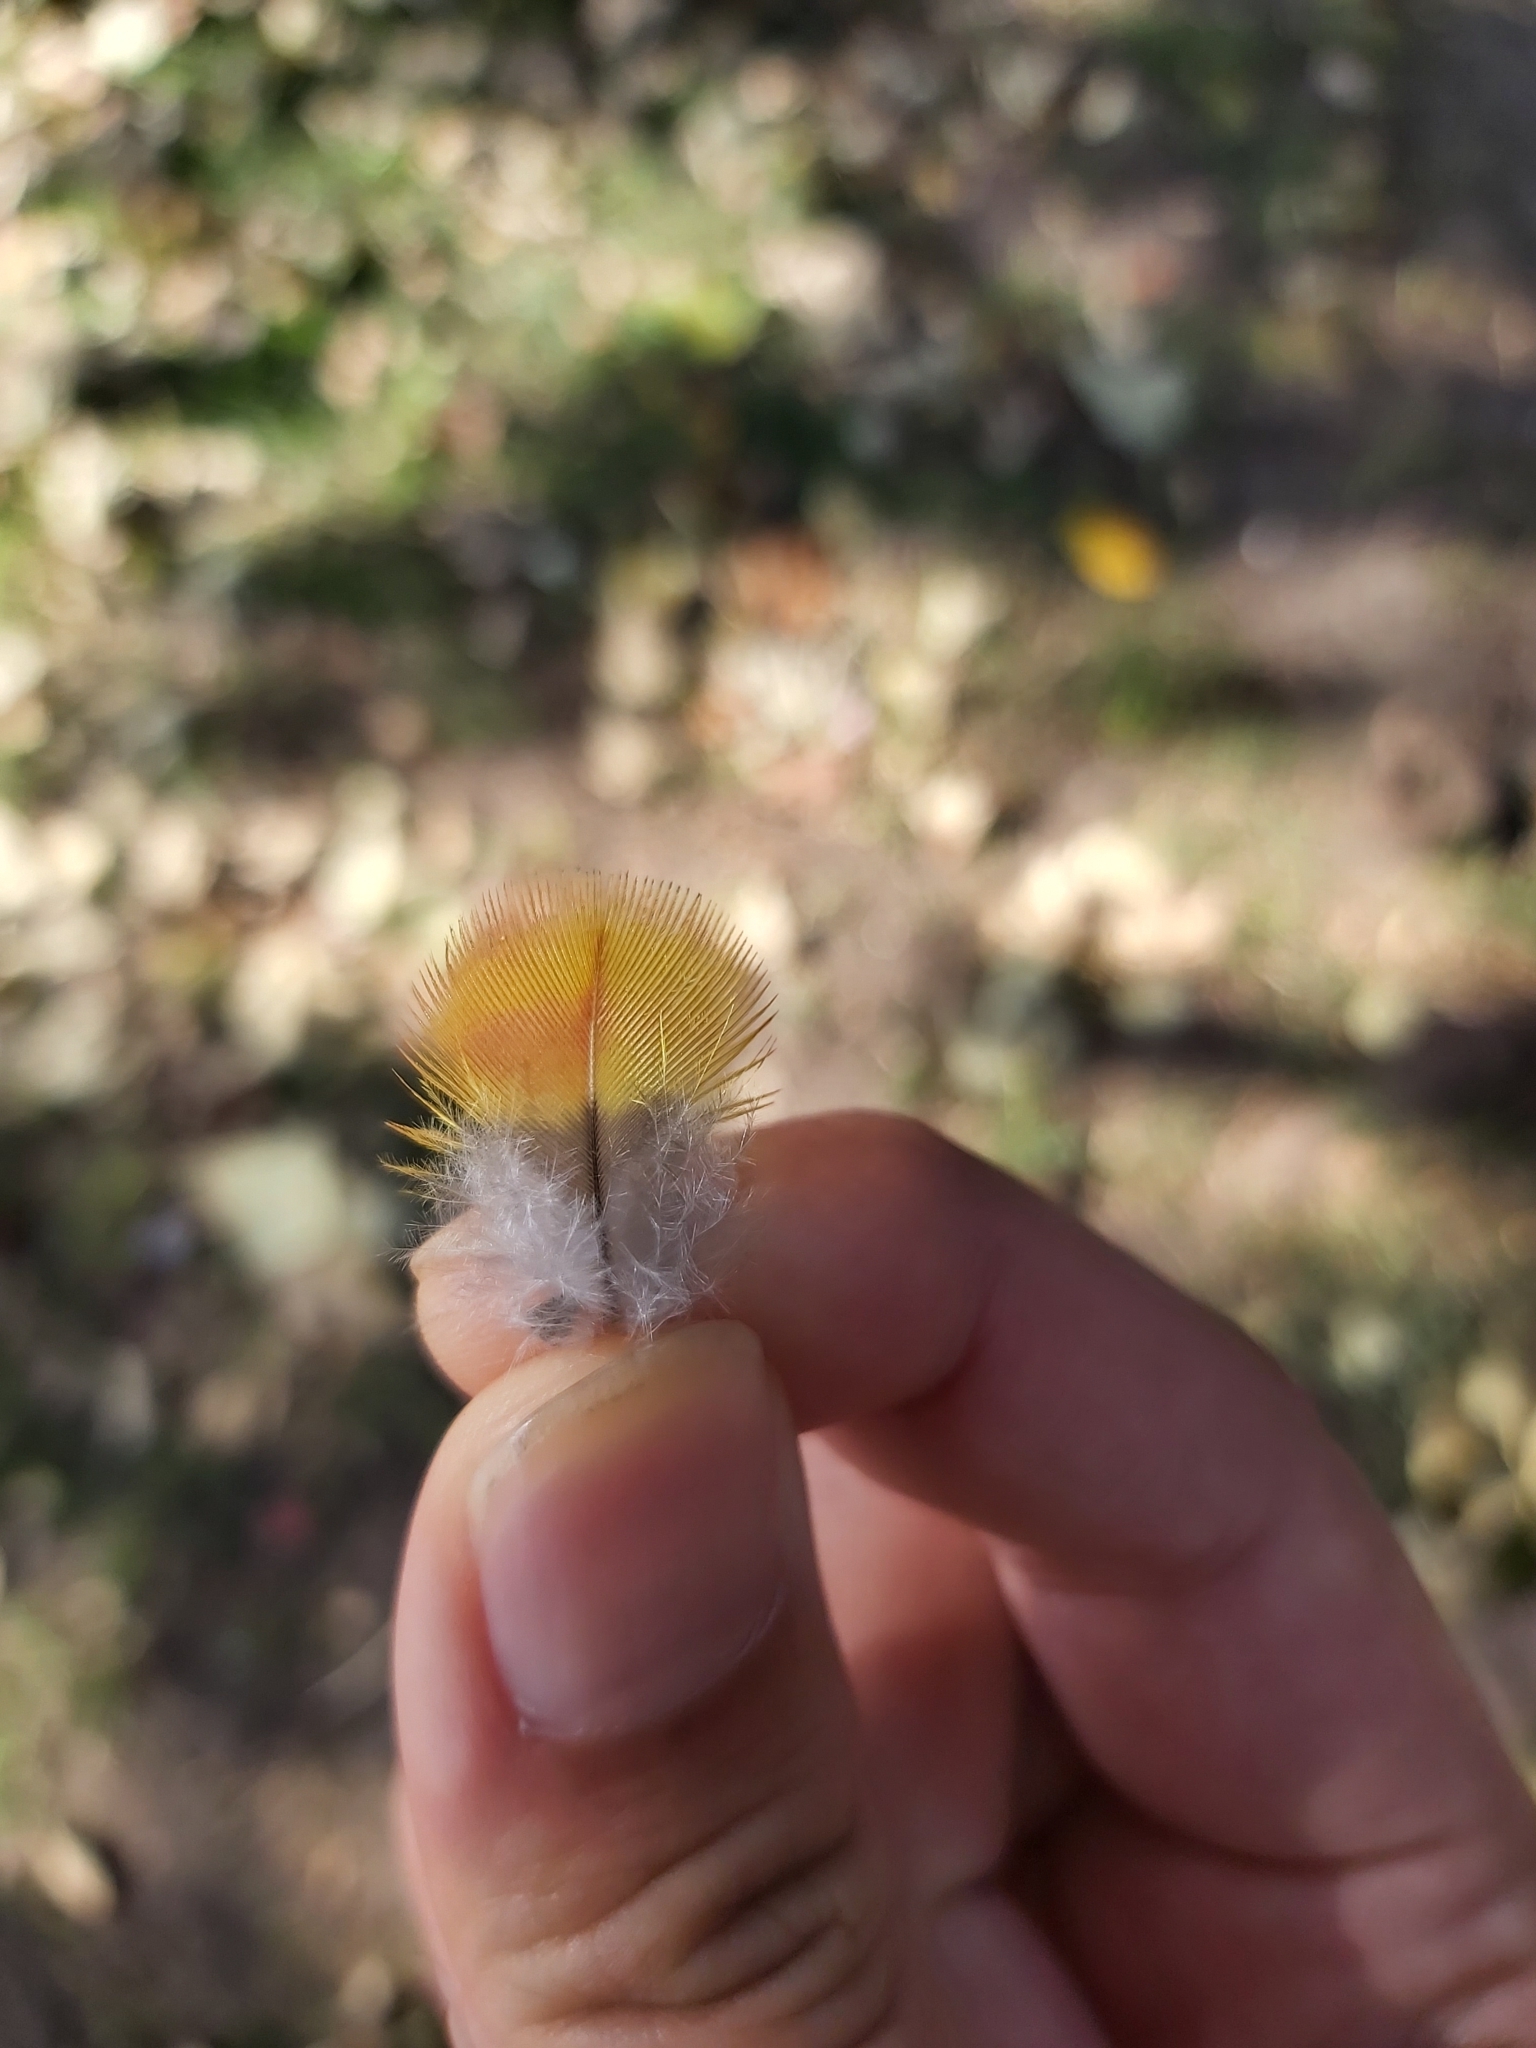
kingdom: Animalia
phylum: Chordata
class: Aves
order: Psittaciformes
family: Psittacidae
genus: Trichoglossus
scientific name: Trichoglossus haematodus
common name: Coconut lorikeet
